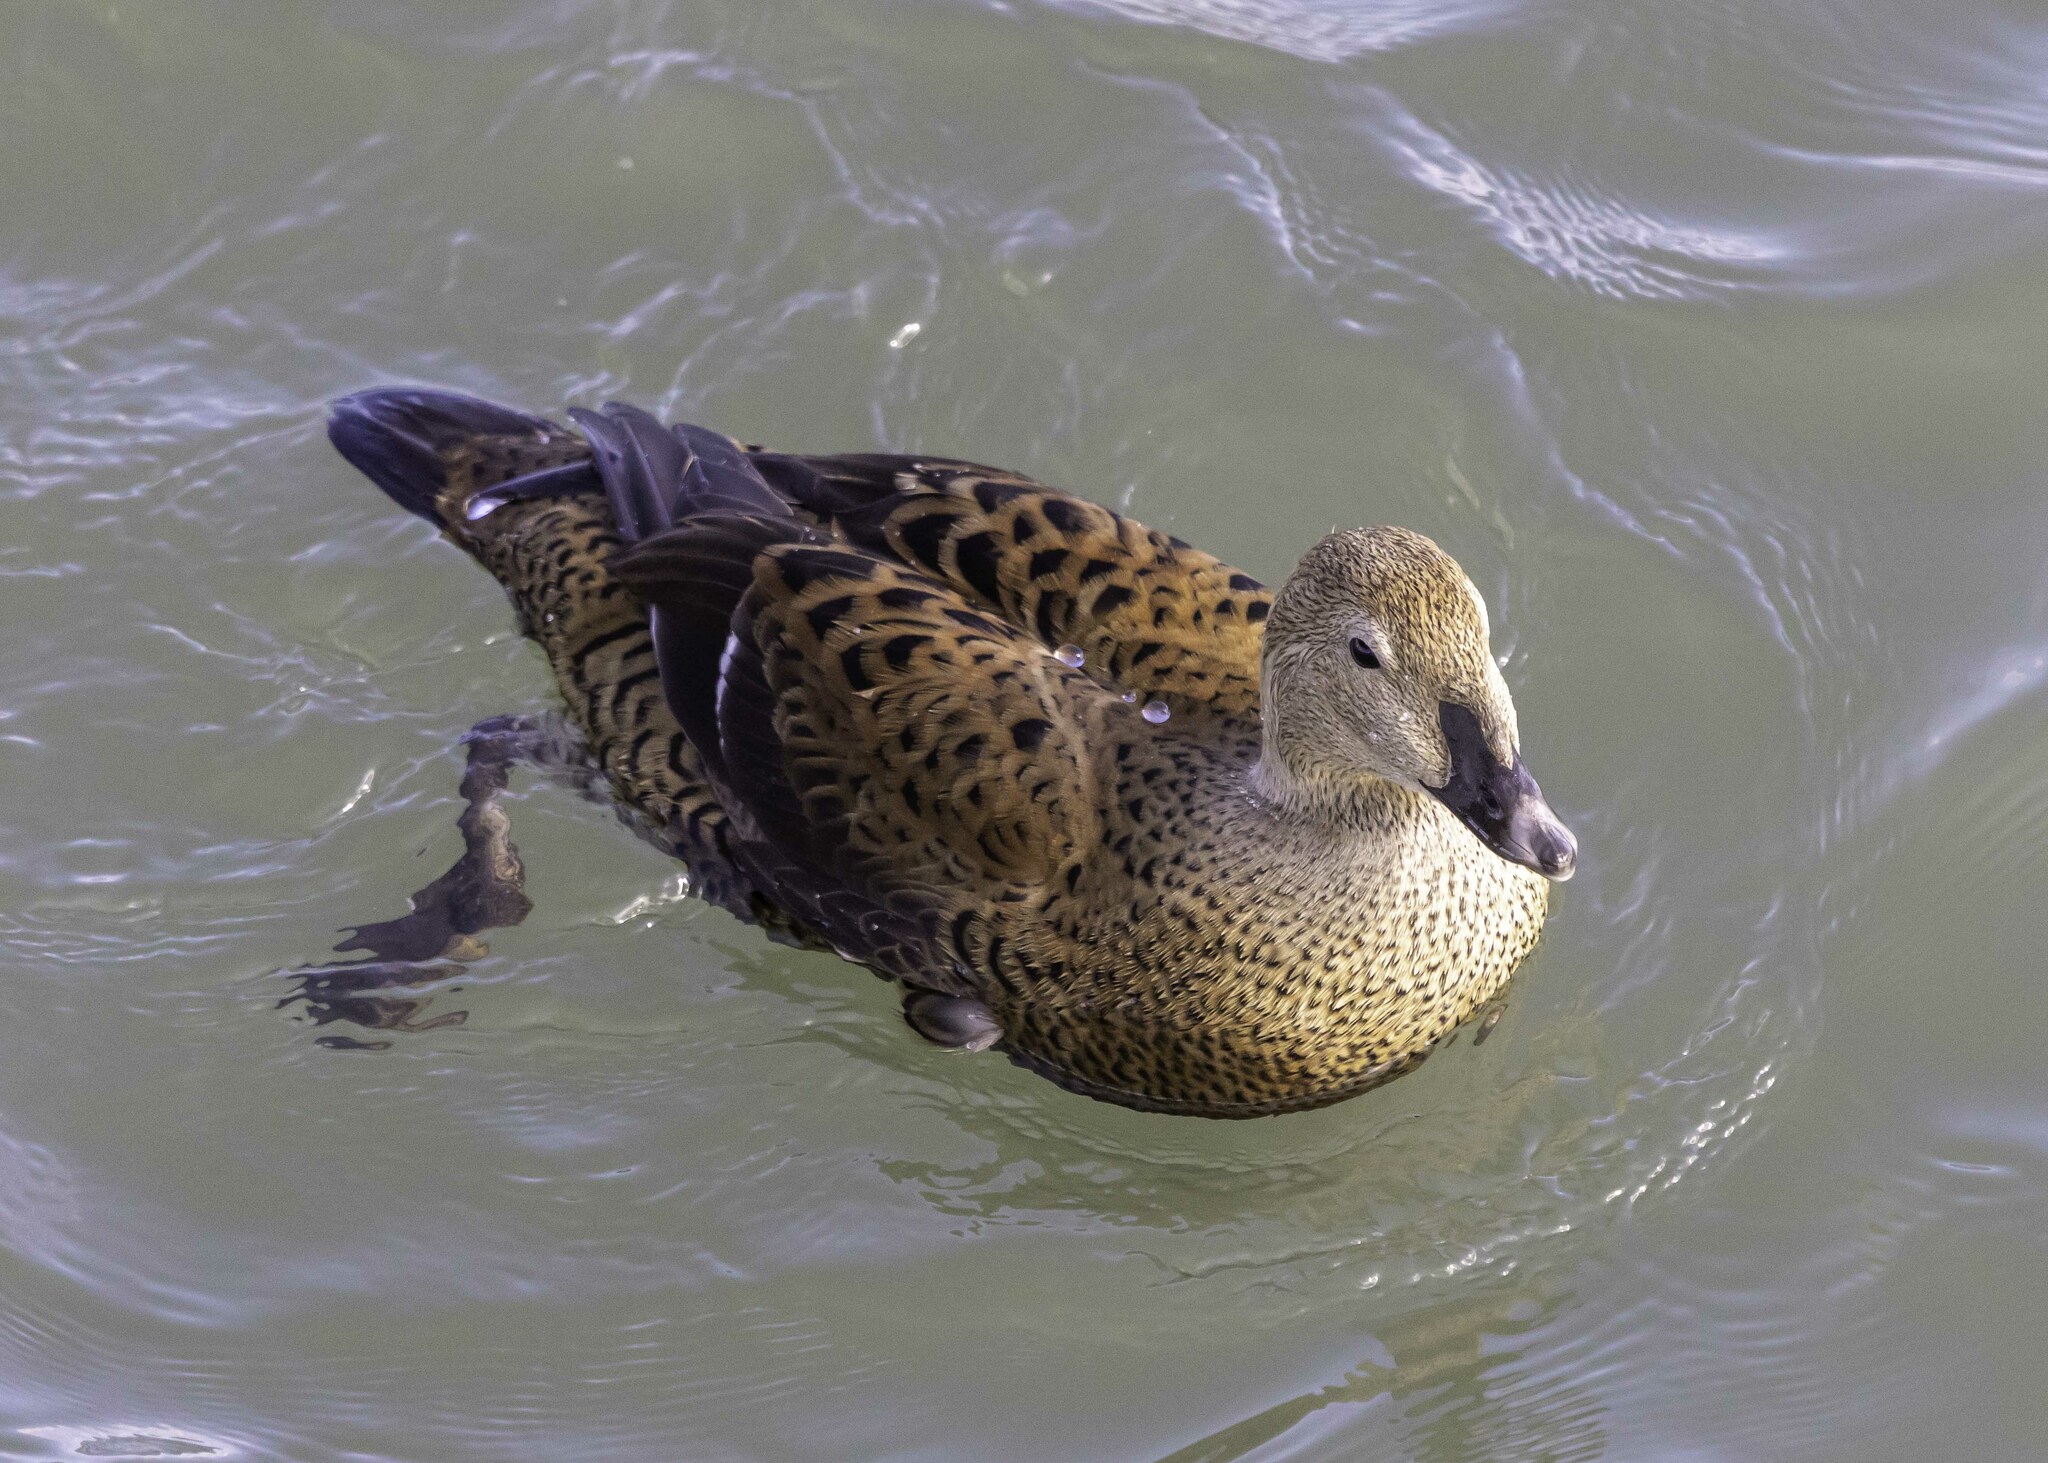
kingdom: Animalia
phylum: Chordata
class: Aves
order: Anseriformes
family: Anatidae
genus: Somateria
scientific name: Somateria spectabilis
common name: King eider
